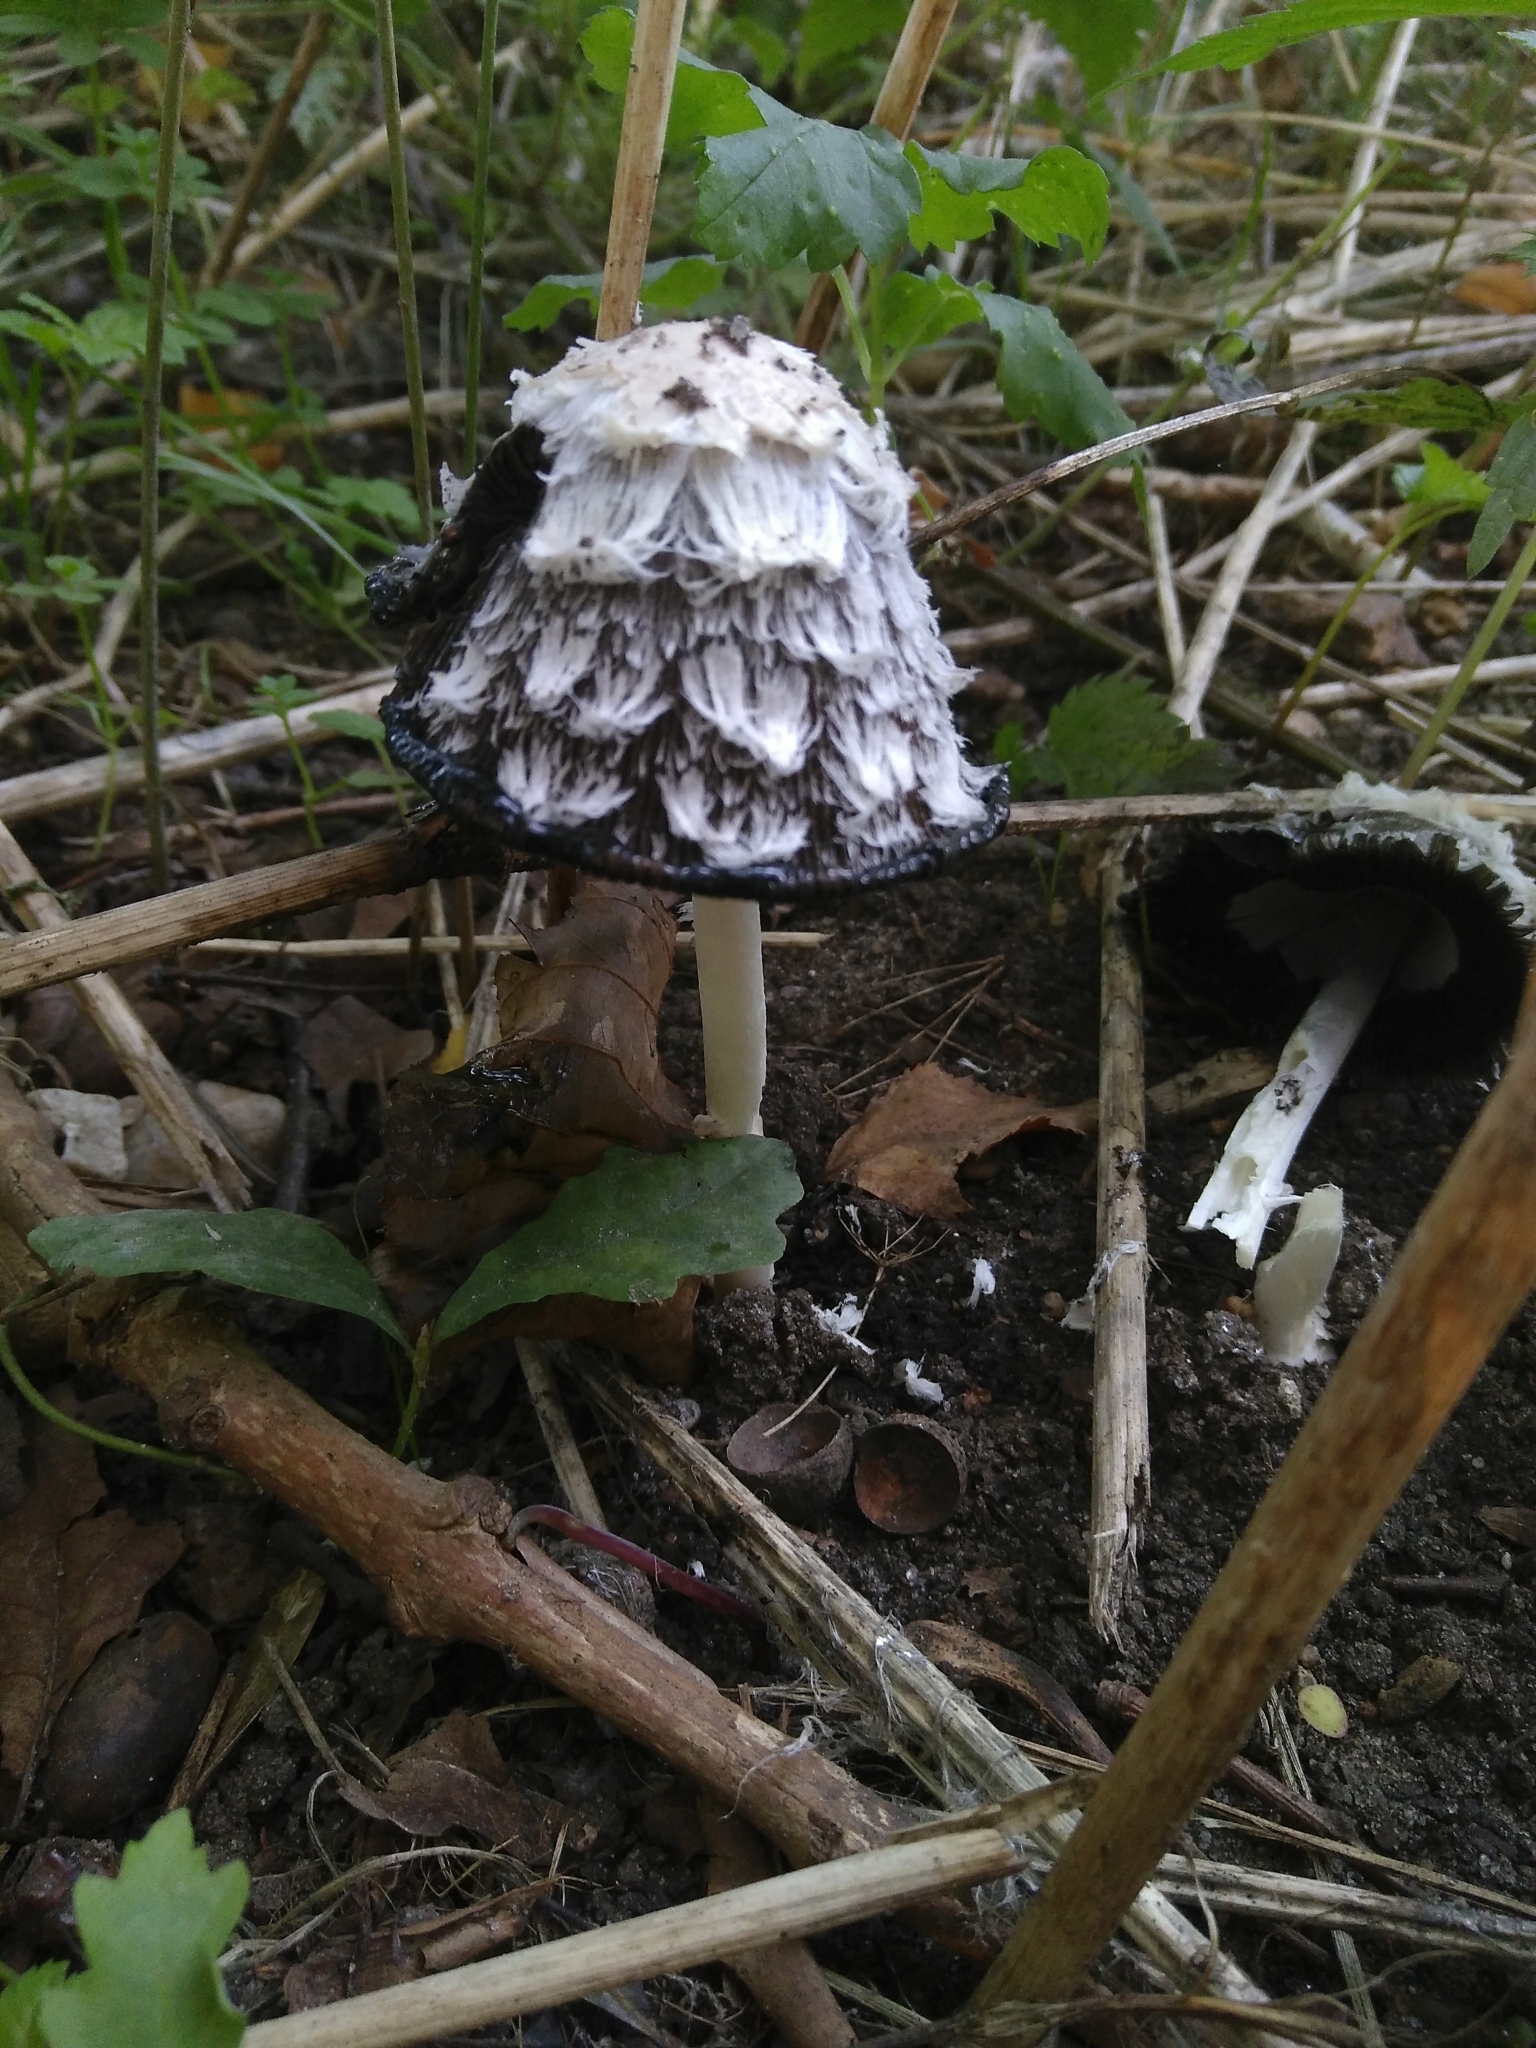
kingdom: Fungi
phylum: Basidiomycota
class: Agaricomycetes
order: Agaricales
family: Agaricaceae
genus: Coprinus
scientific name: Coprinus comatus
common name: Lawyer's wig
